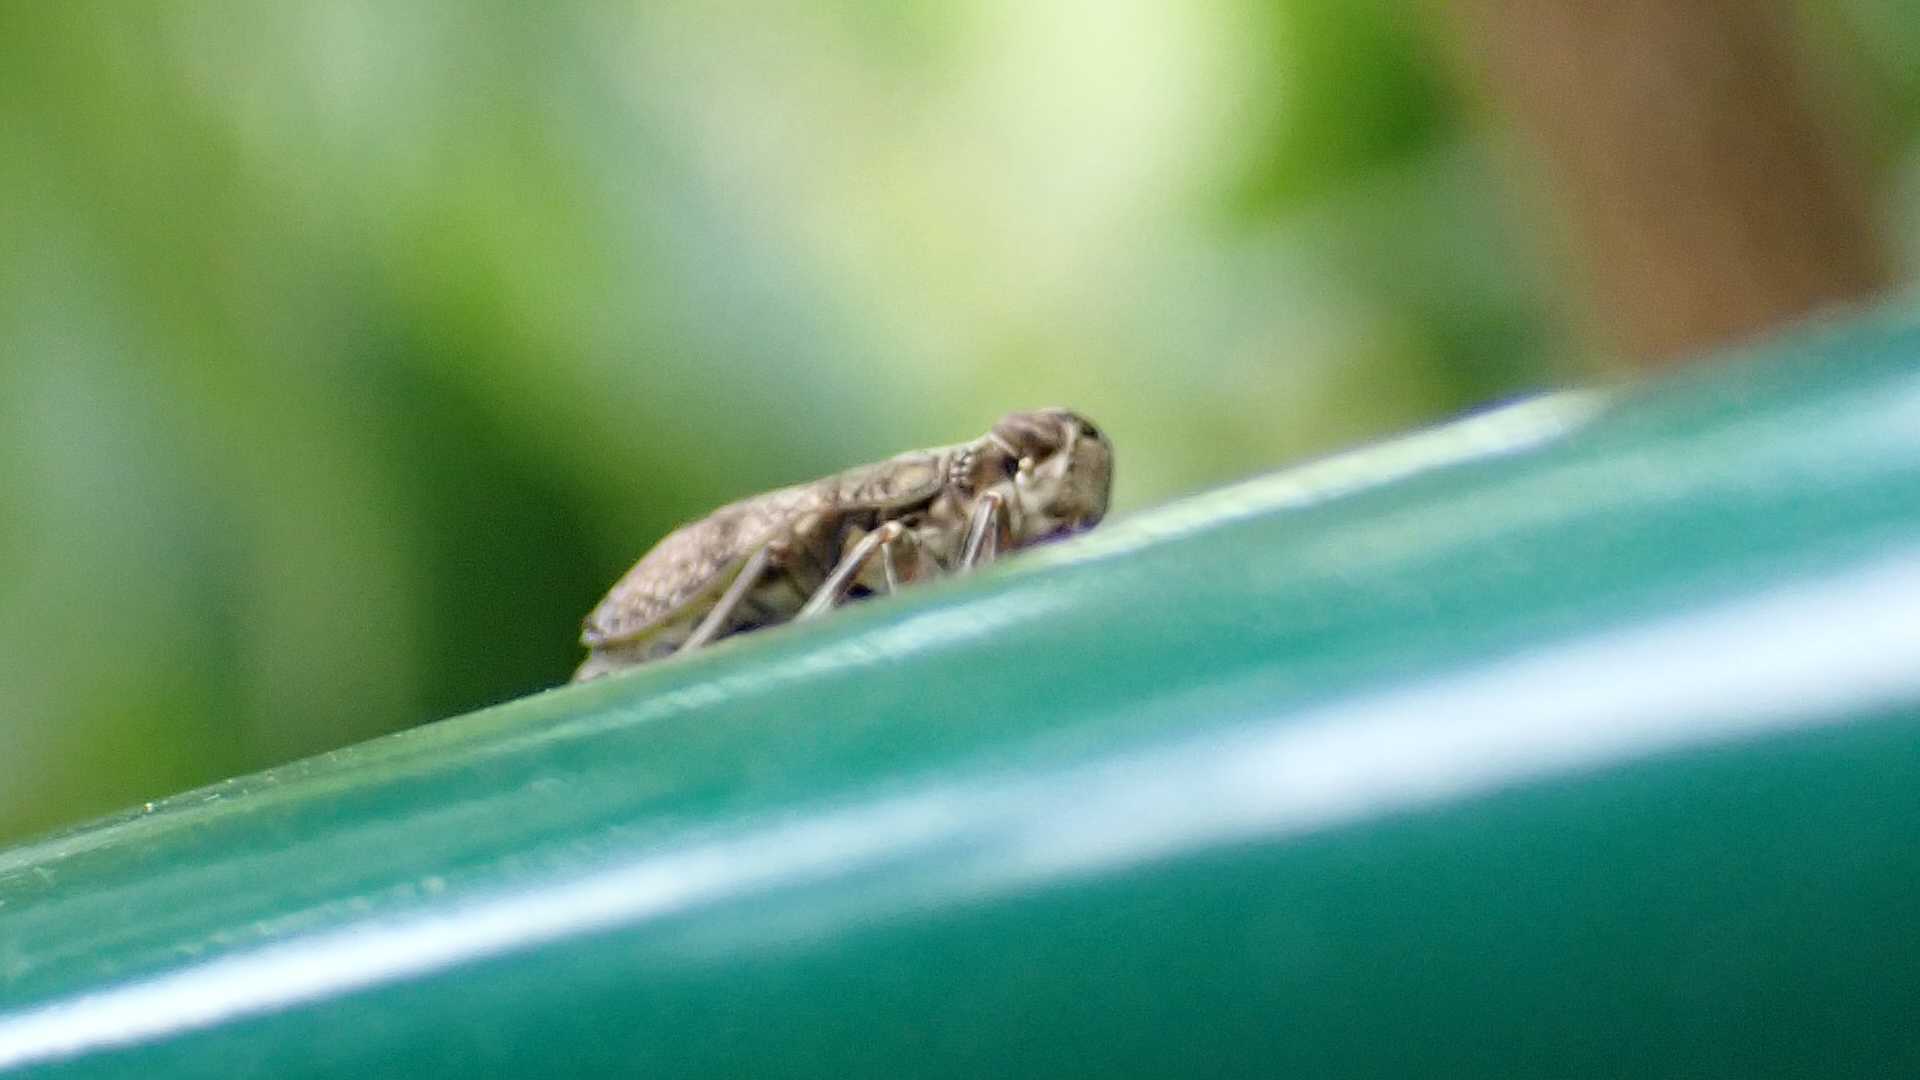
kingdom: Animalia
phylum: Arthropoda
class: Insecta
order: Hemiptera
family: Issidae
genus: Issus
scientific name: Issus coleoptratus
